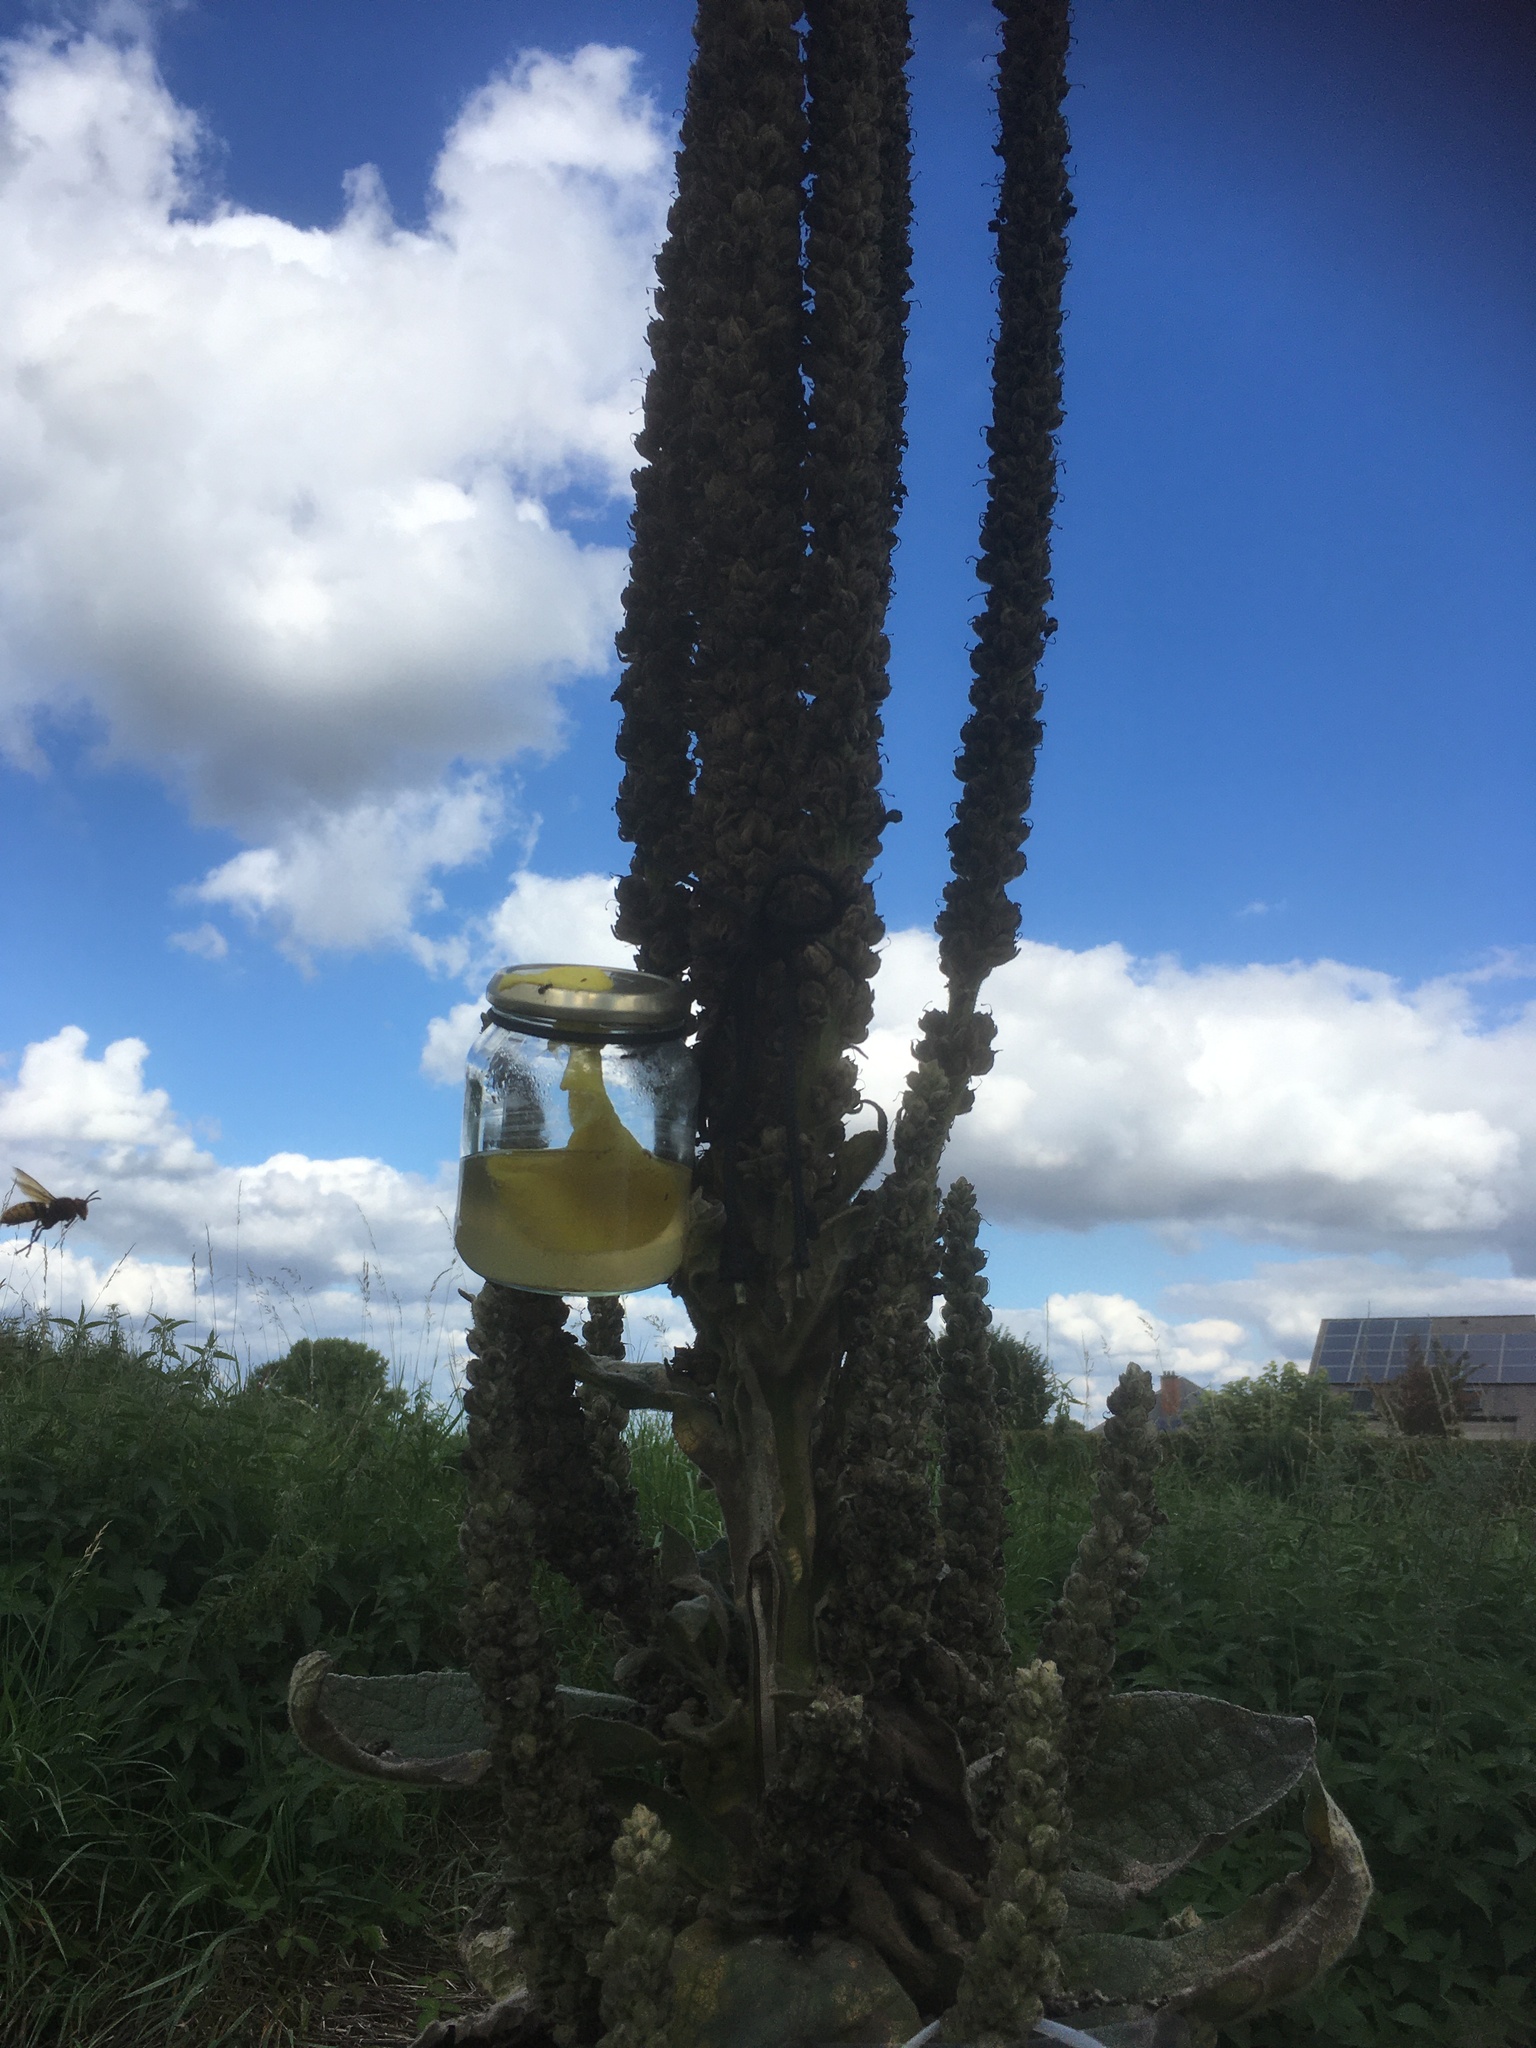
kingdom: Animalia
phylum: Arthropoda
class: Insecta
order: Hymenoptera
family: Vespidae
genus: Vespa
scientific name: Vespa crabro
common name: Hornet
